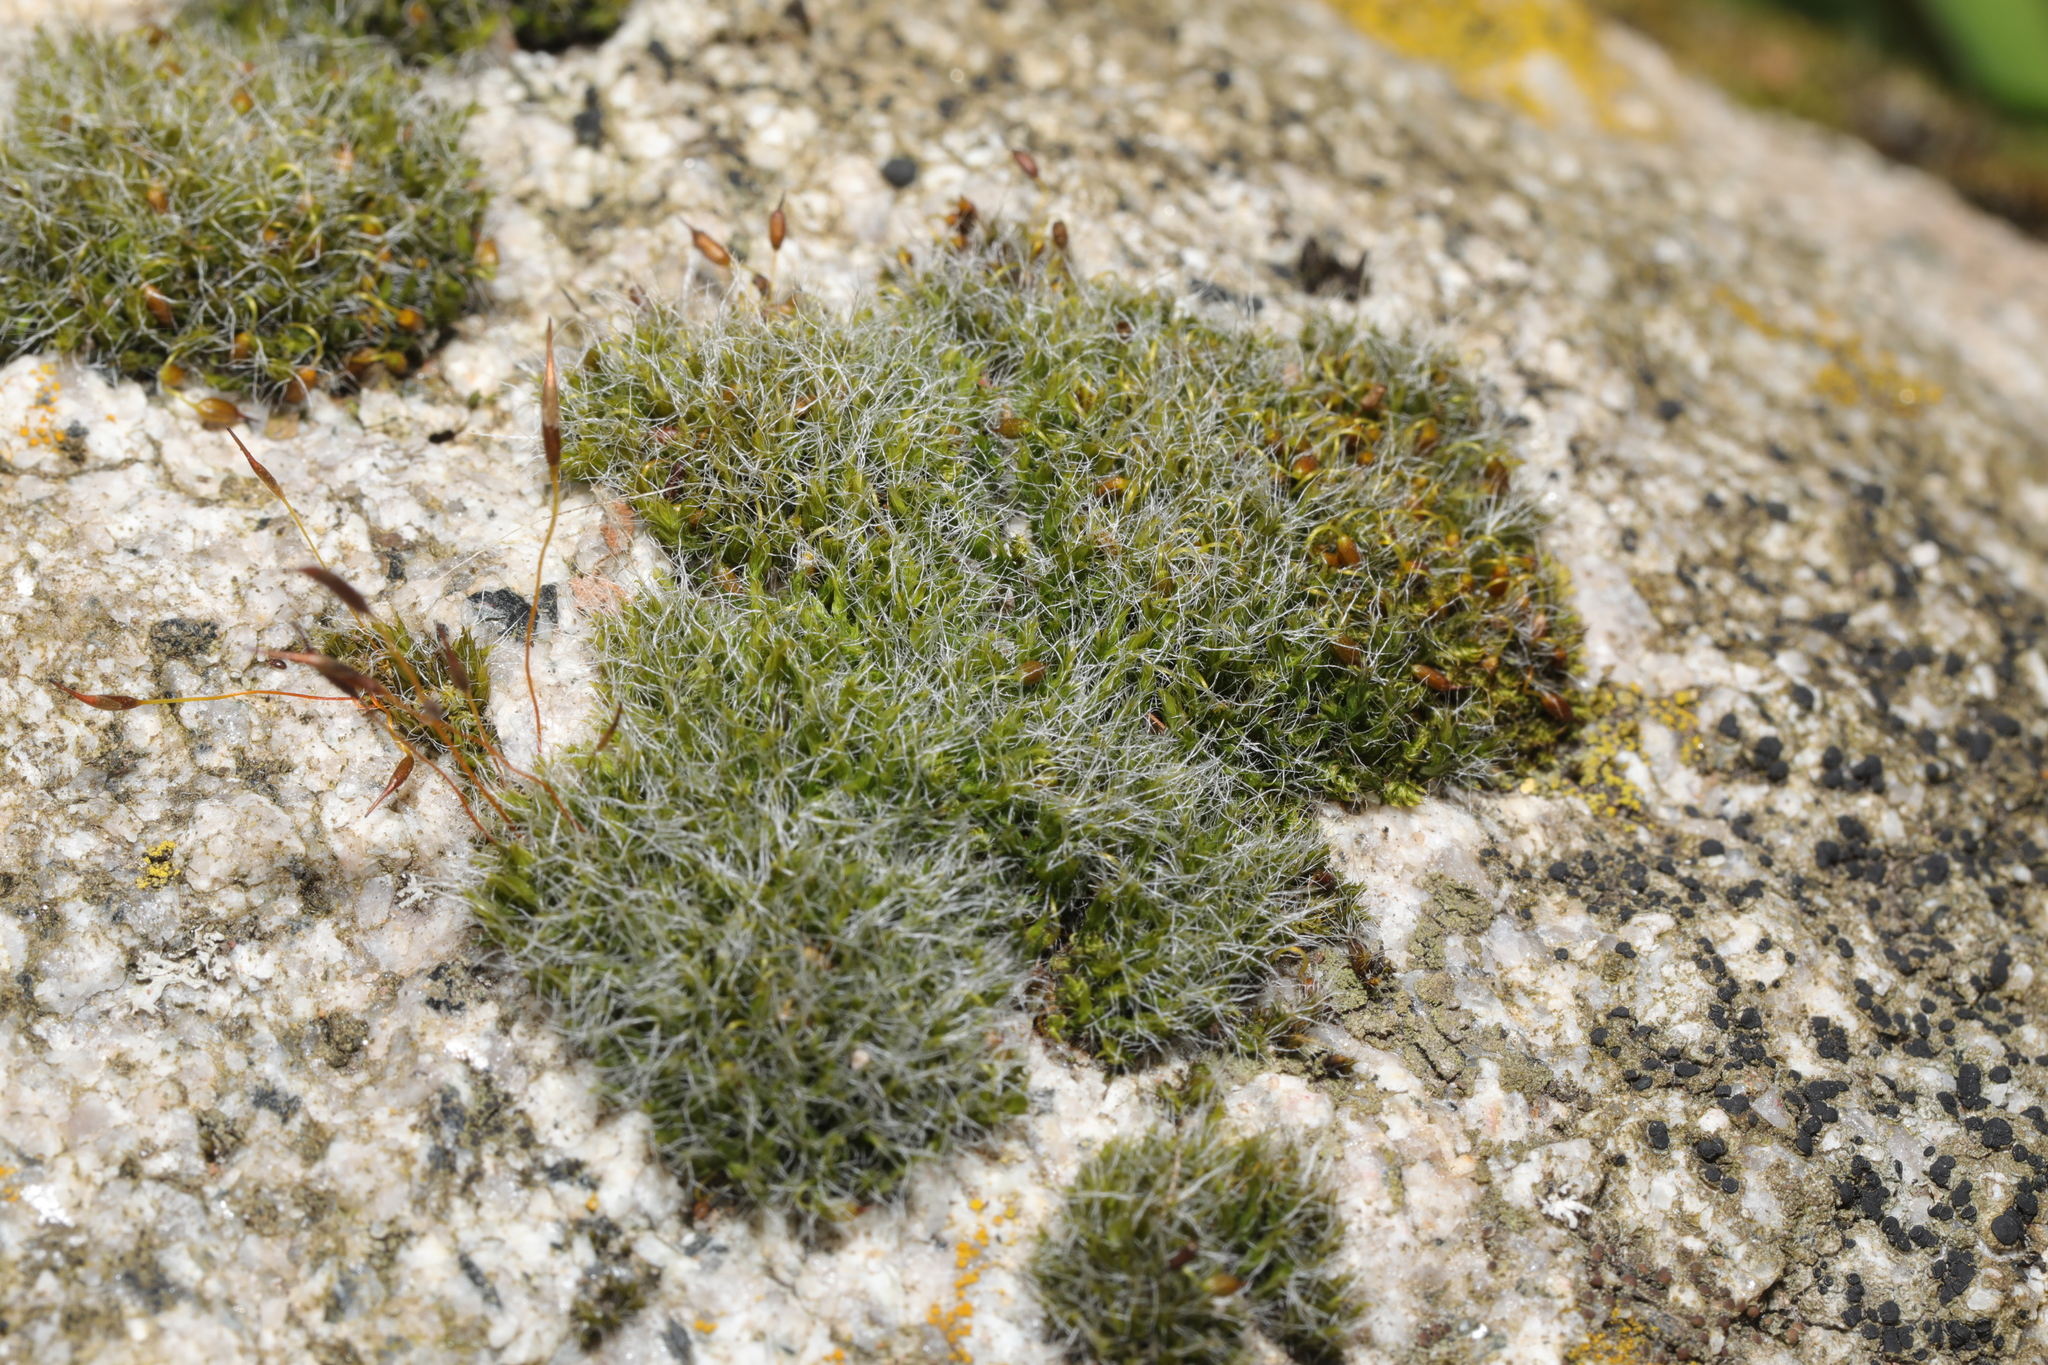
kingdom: Plantae
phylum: Bryophyta
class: Bryopsida
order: Grimmiales
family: Grimmiaceae
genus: Grimmia
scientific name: Grimmia pulvinata
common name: Grey-cushioned grimmia
